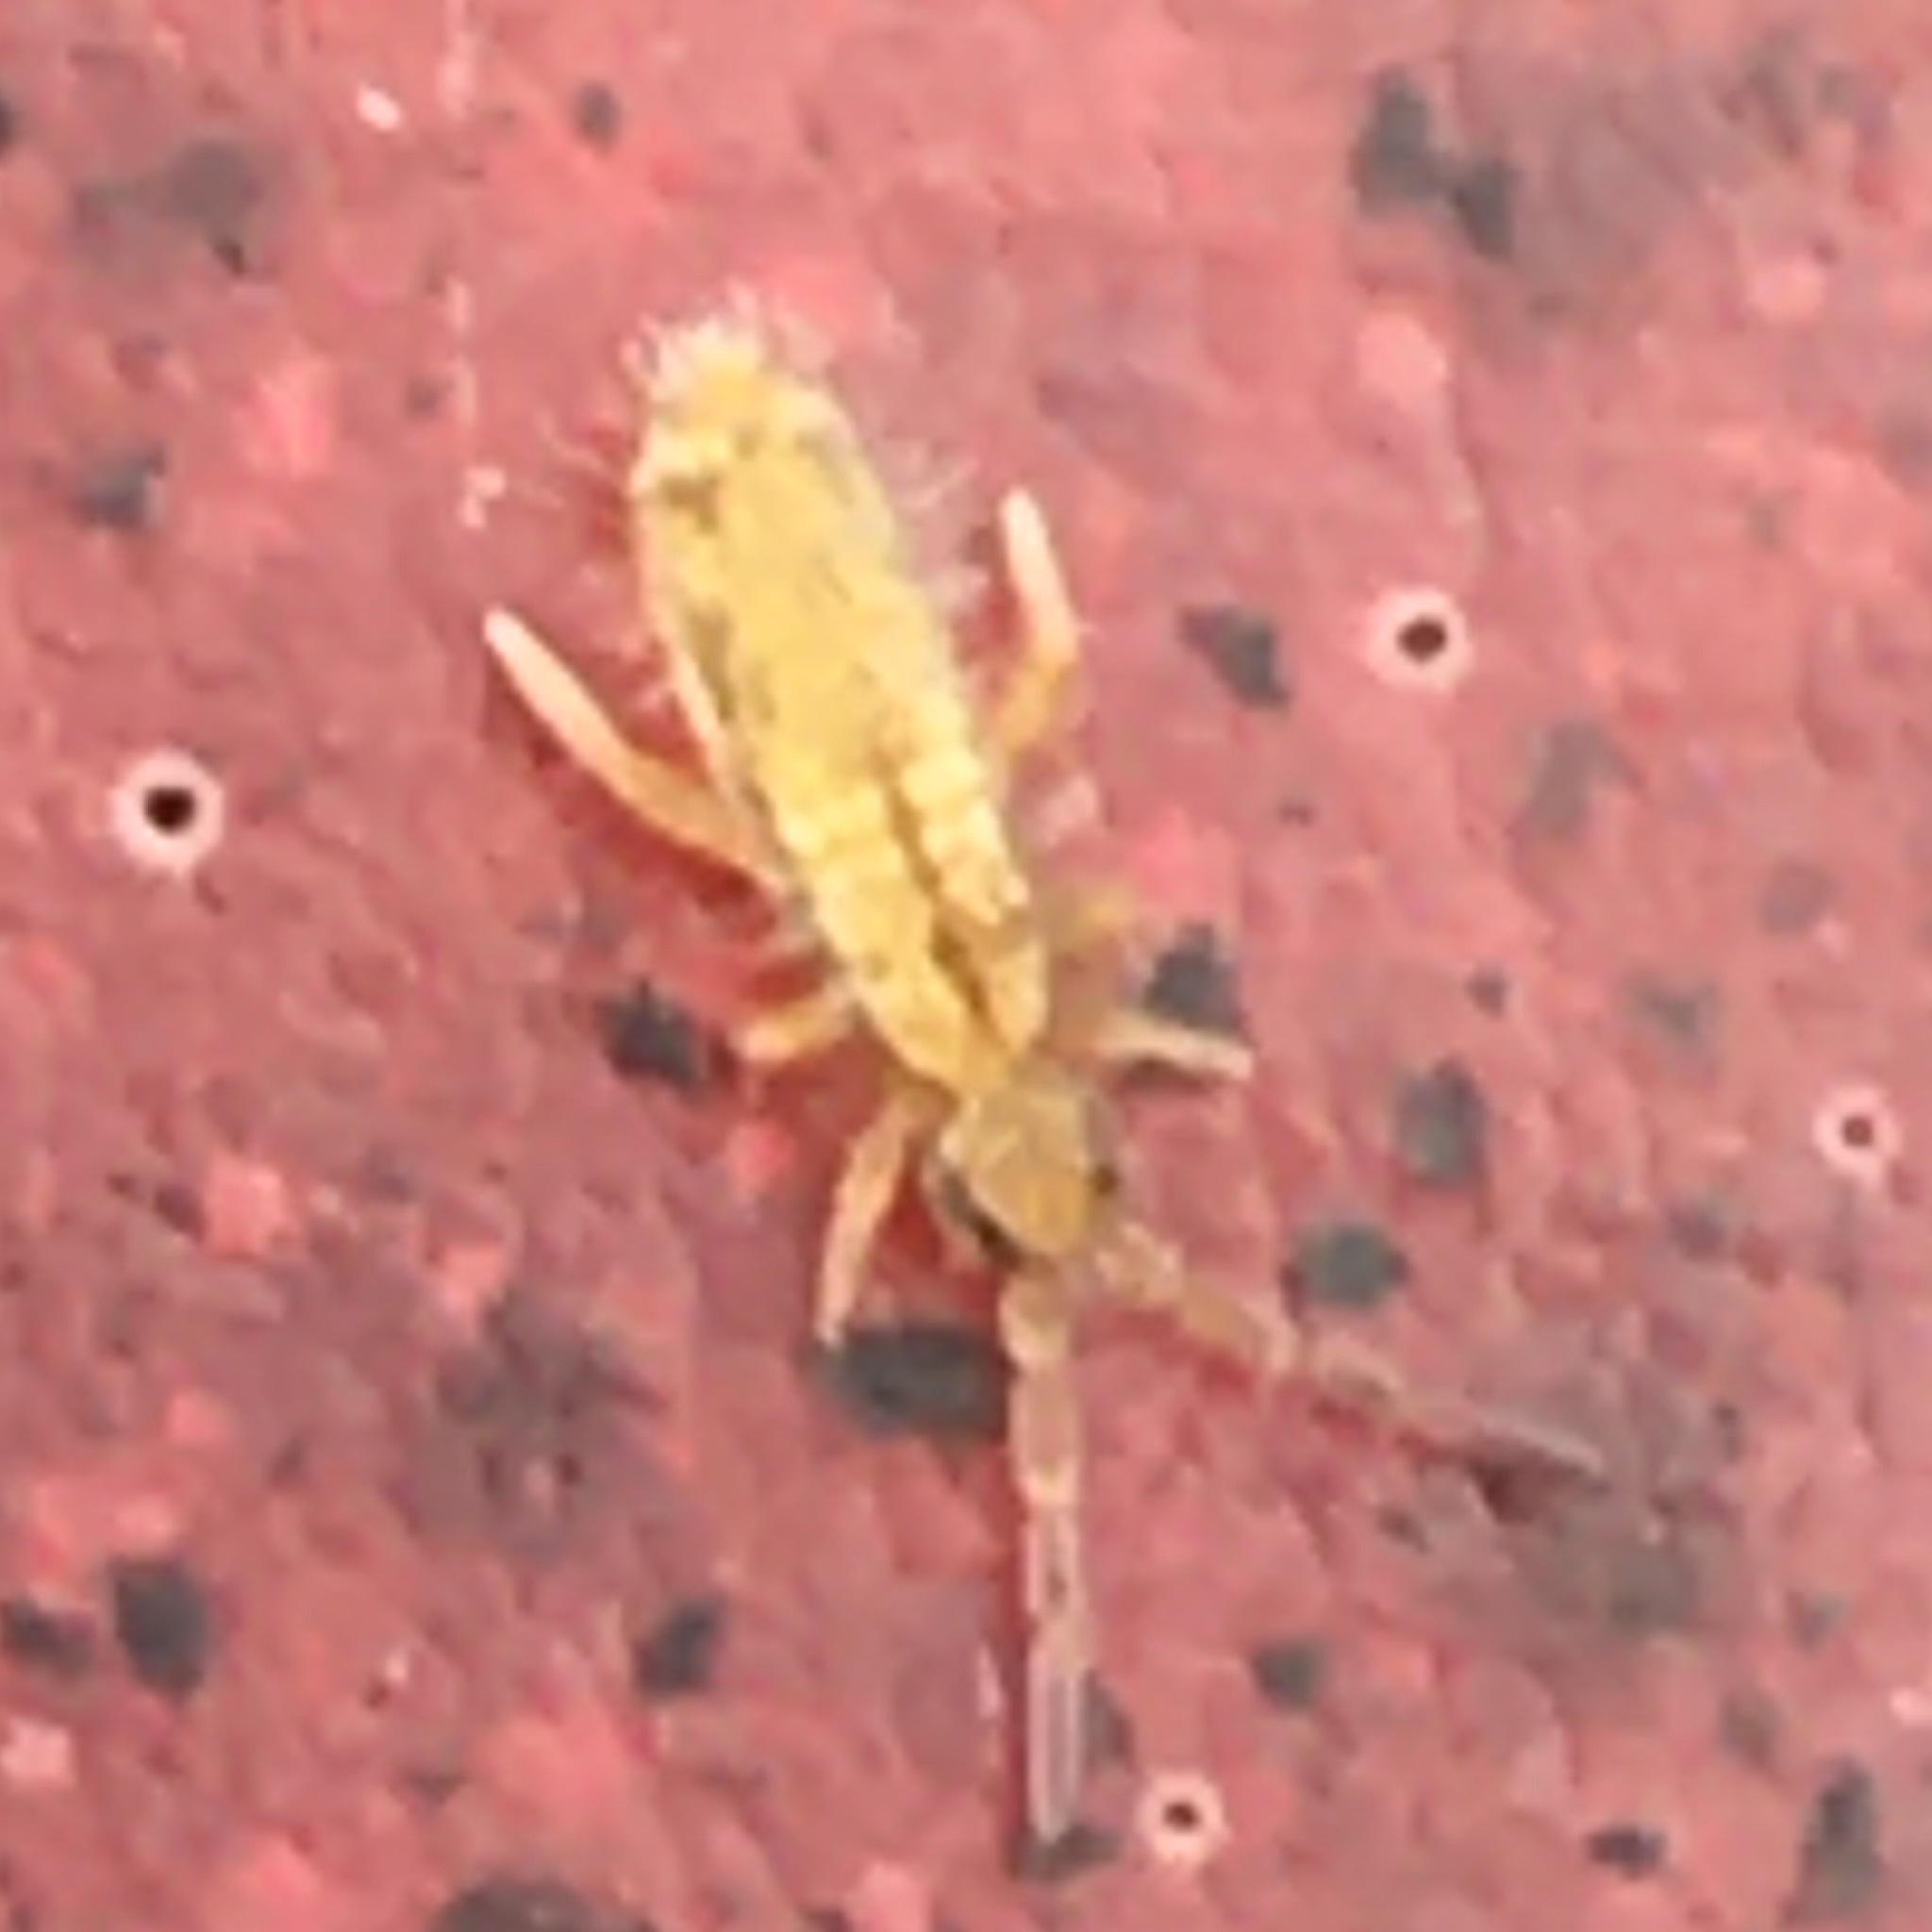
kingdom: Animalia
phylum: Arthropoda
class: Collembola
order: Entomobryomorpha
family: Entomobryidae
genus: Entomobrya
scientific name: Entomobrya unostrigata
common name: Springtail
